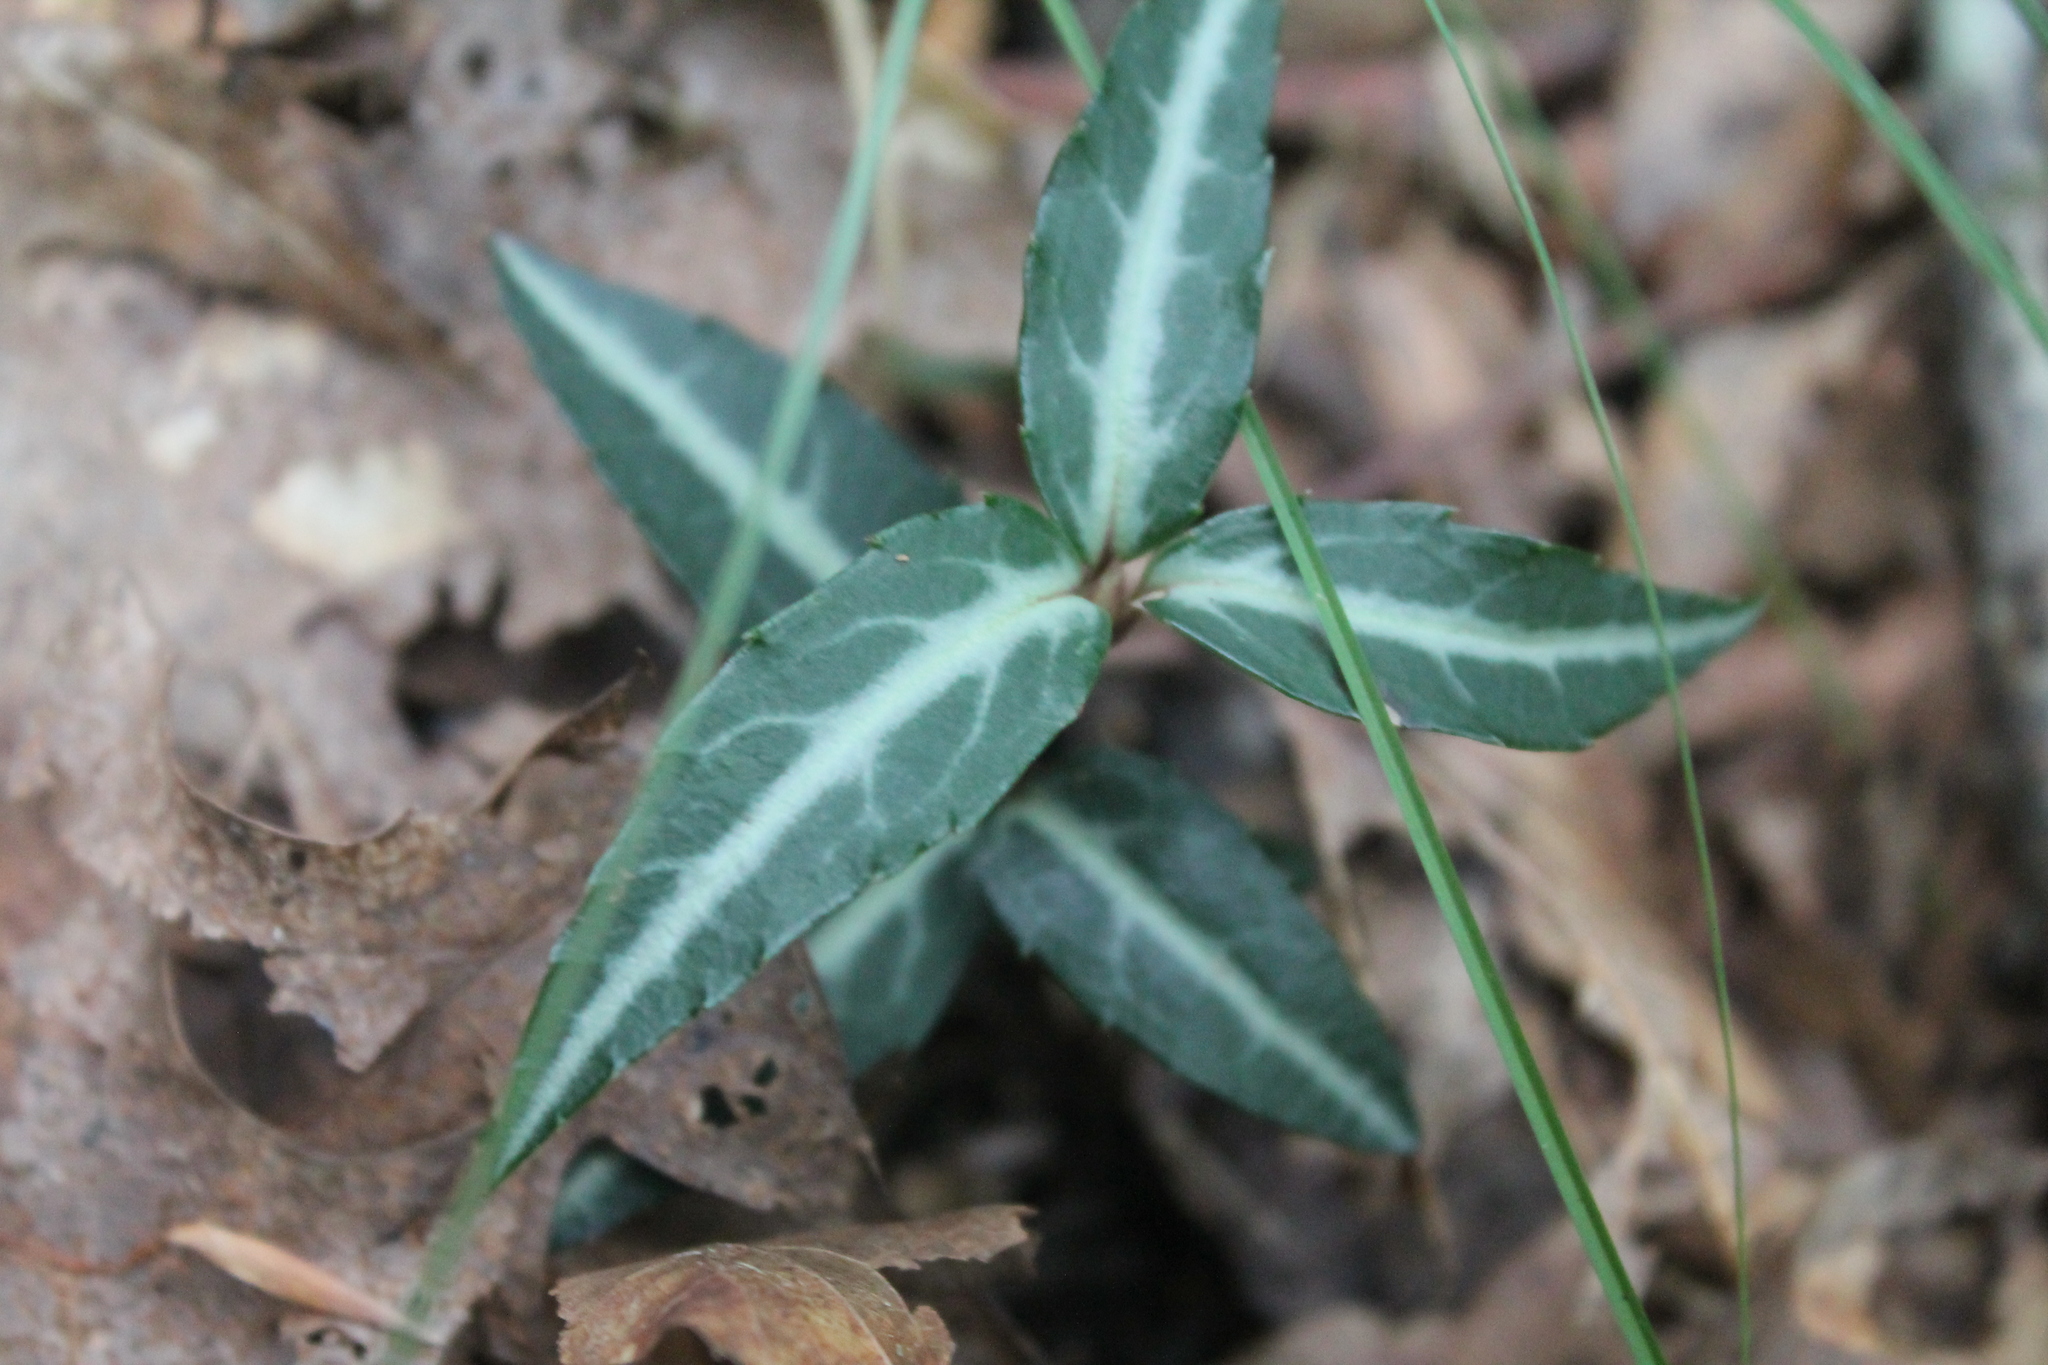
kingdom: Plantae
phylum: Tracheophyta
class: Magnoliopsida
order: Ericales
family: Ericaceae
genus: Chimaphila
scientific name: Chimaphila maculata
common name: Spotted pipsissewa
